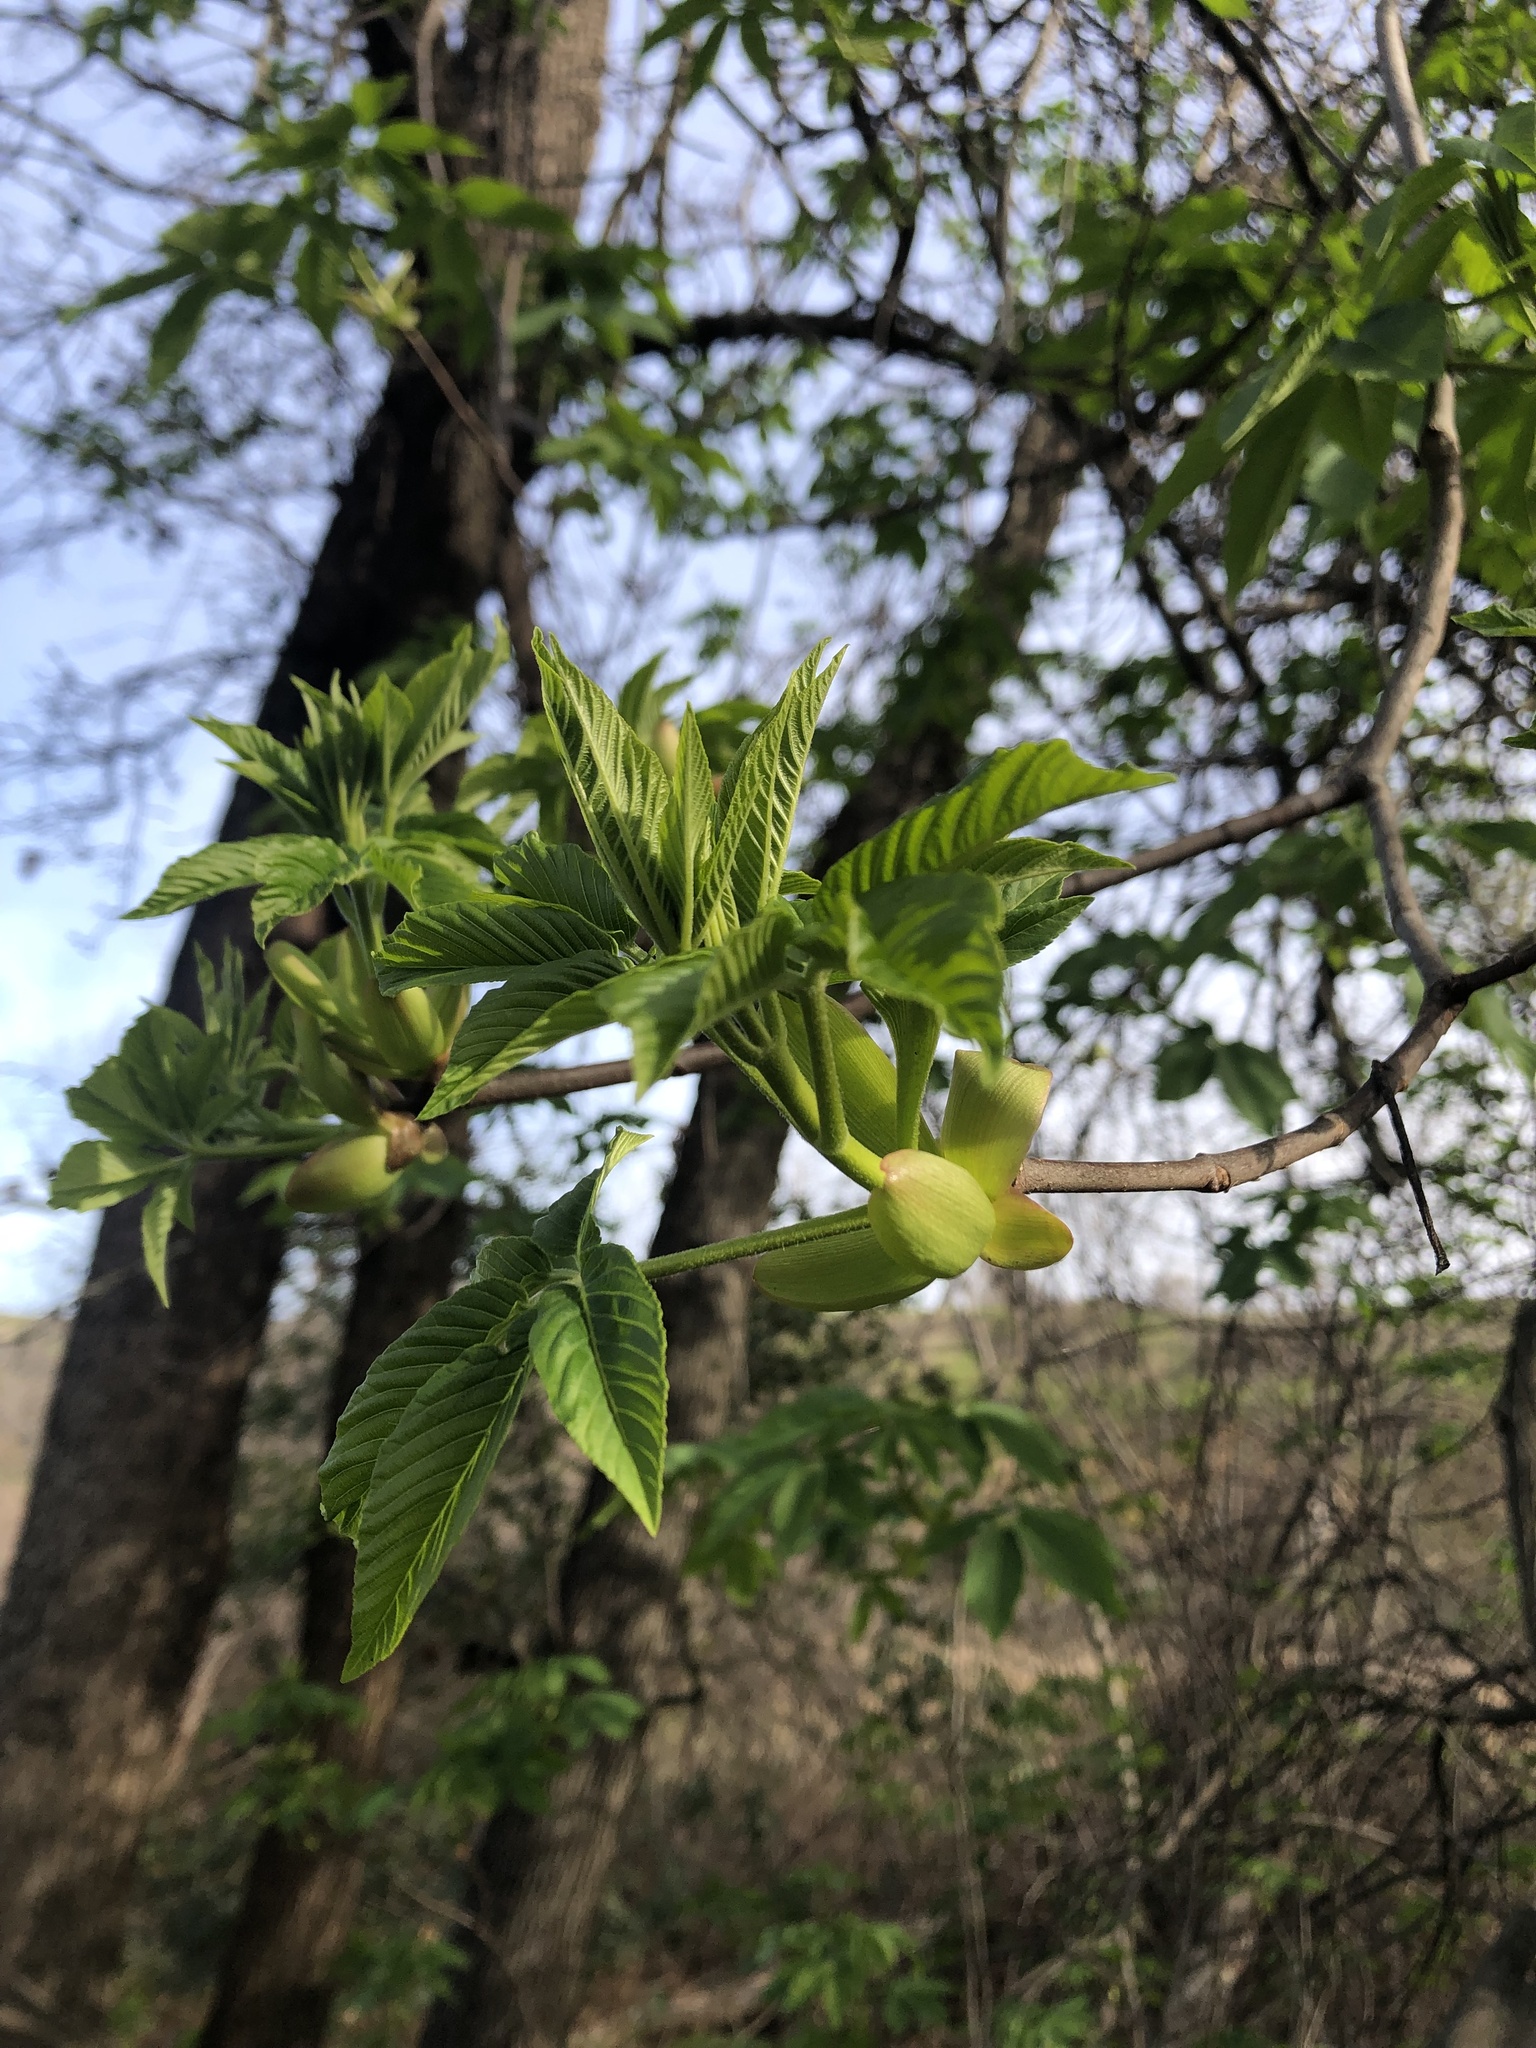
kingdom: Plantae
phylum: Tracheophyta
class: Magnoliopsida
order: Sapindales
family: Sapindaceae
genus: Aesculus
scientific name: Aesculus californica
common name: California buckeye
